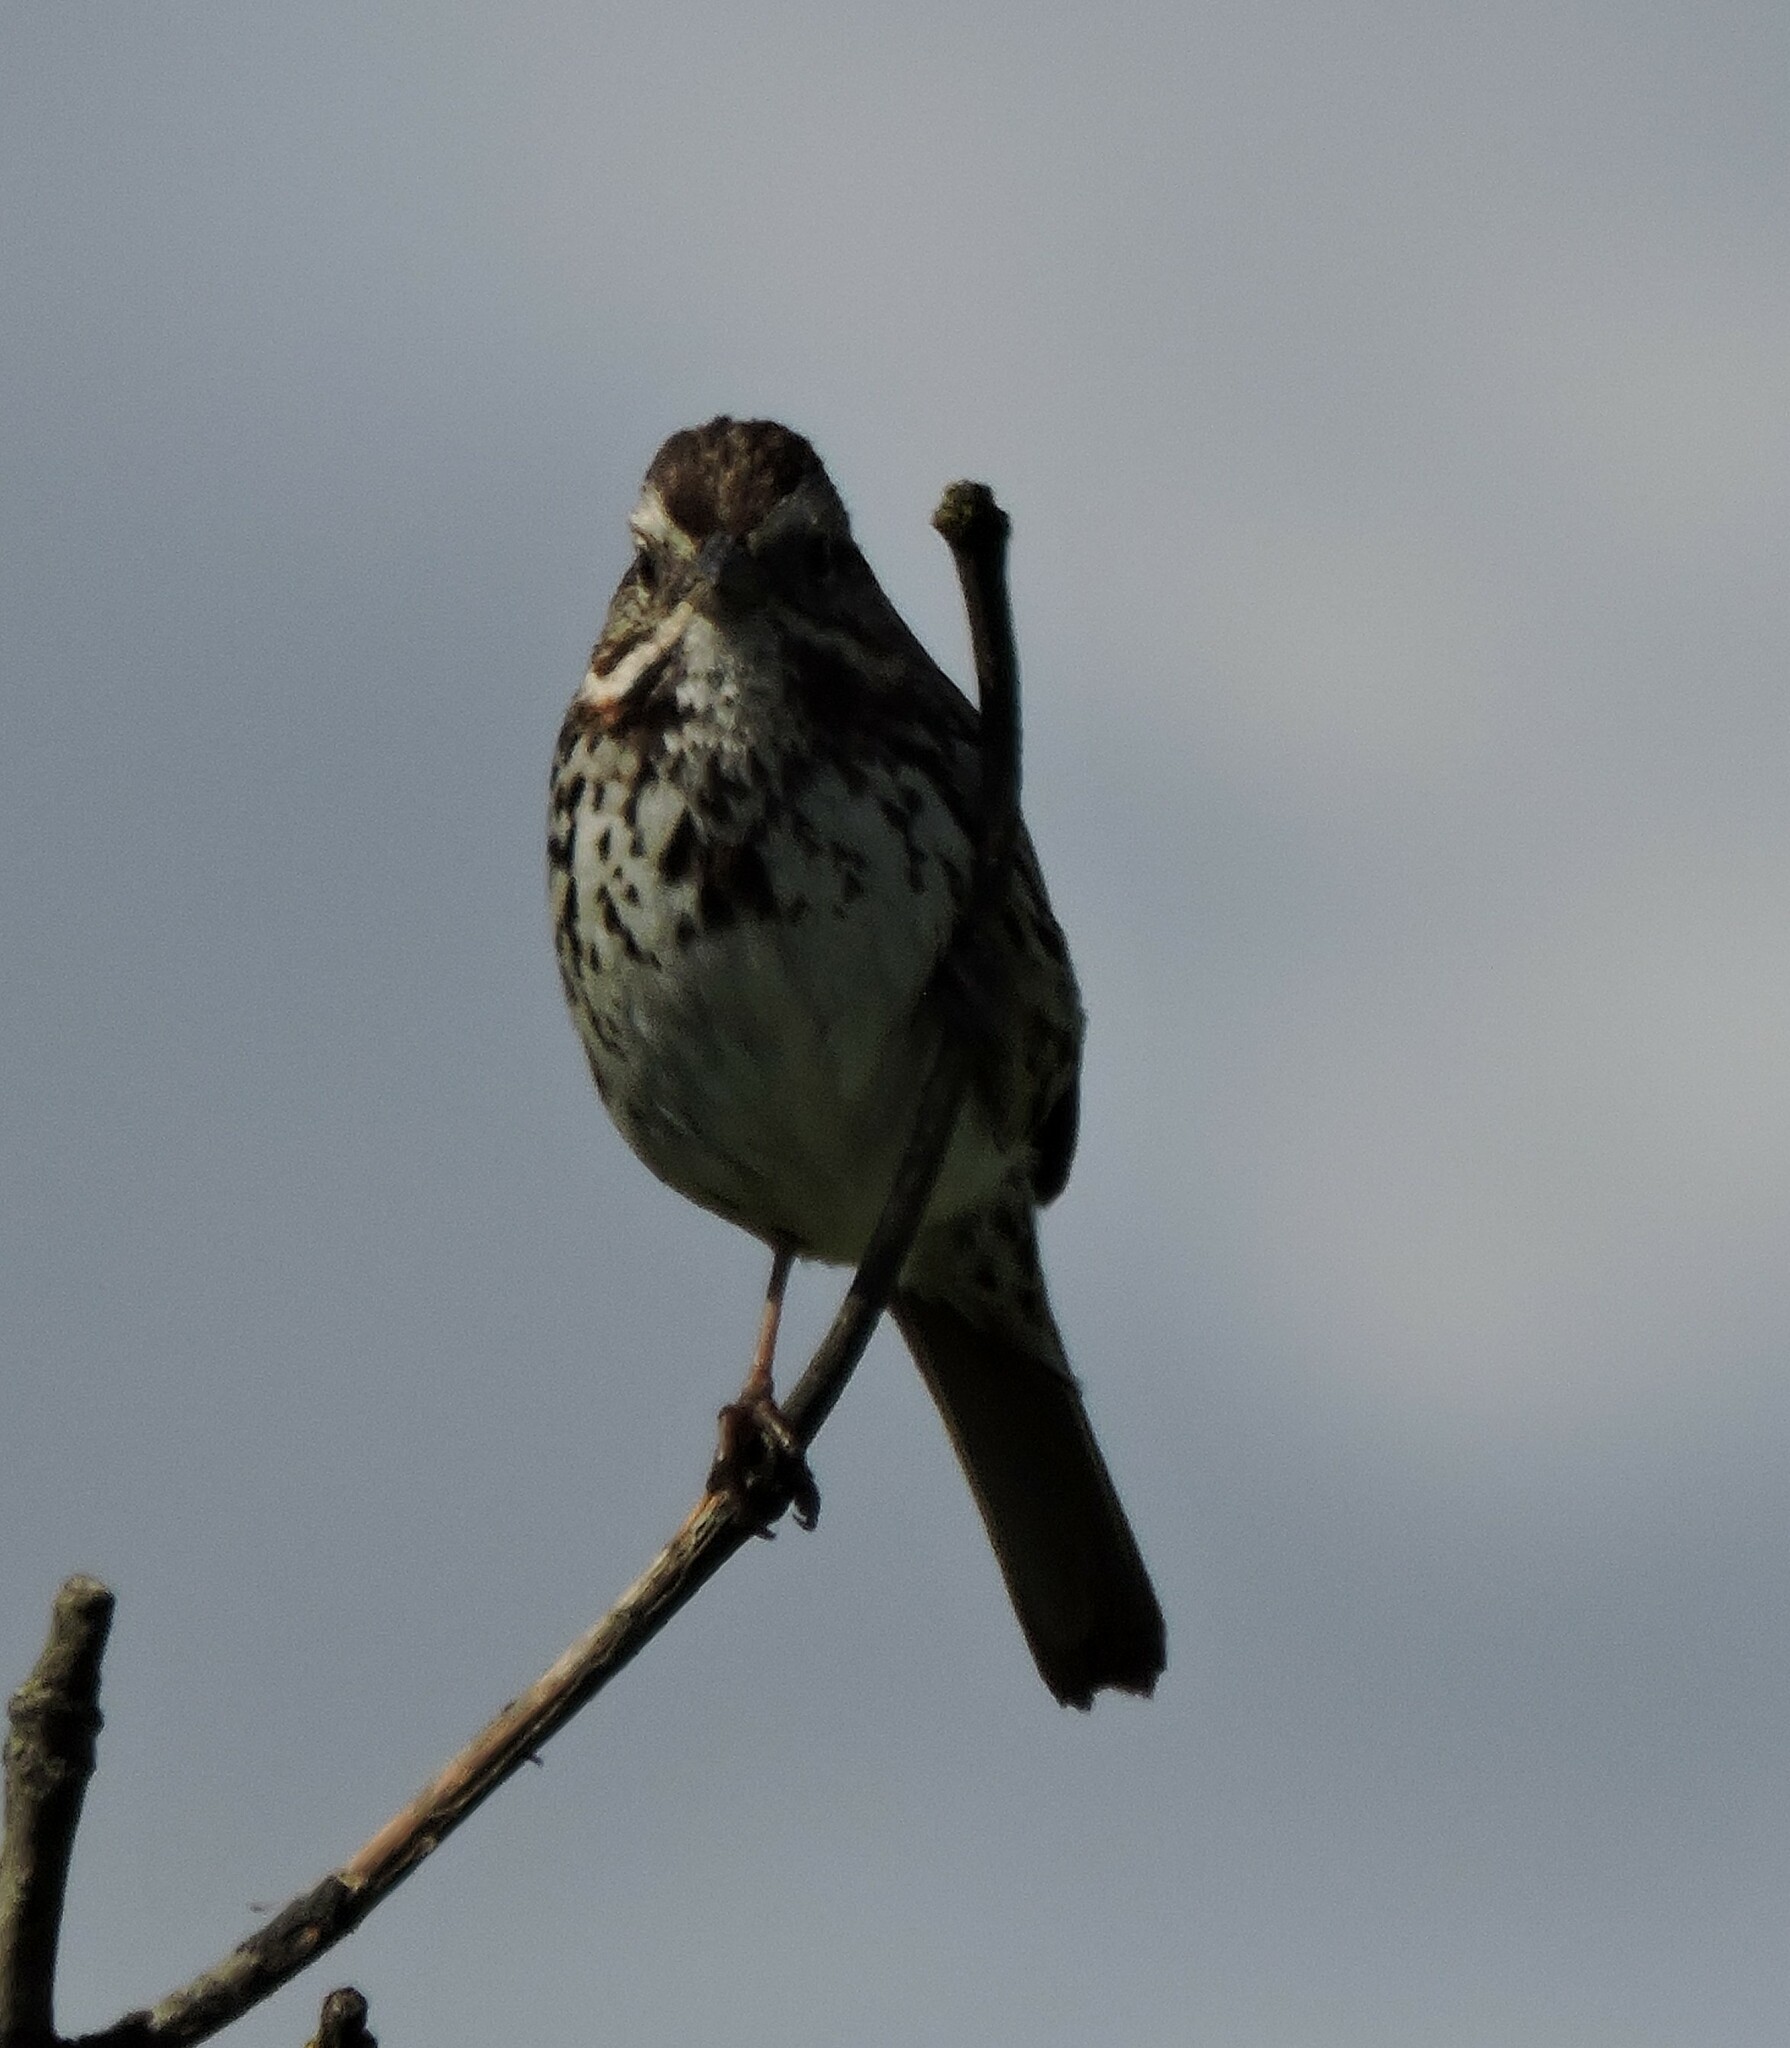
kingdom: Animalia
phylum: Chordata
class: Aves
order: Passeriformes
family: Passerellidae
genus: Melospiza
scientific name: Melospiza melodia
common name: Song sparrow
